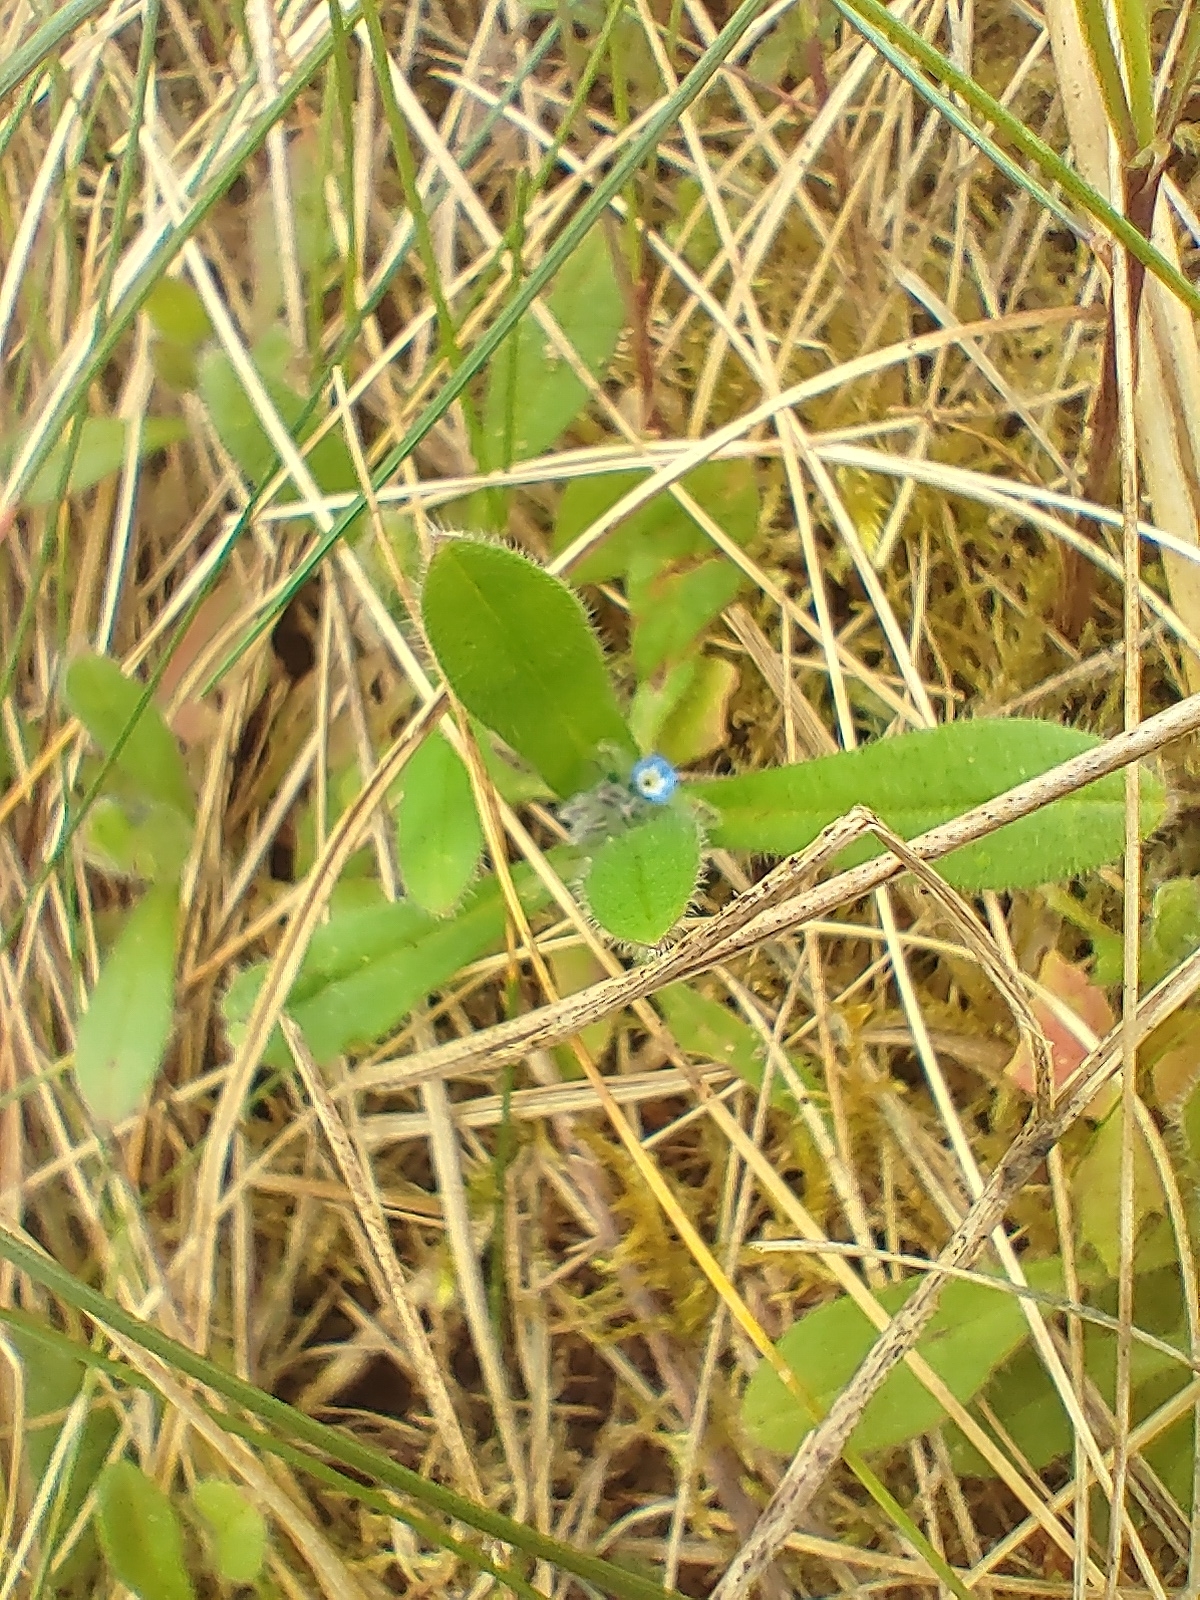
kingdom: Plantae
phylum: Tracheophyta
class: Magnoliopsida
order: Boraginales
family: Boraginaceae
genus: Myosotis
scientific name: Myosotis ramosissima
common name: Early forget-me-not
